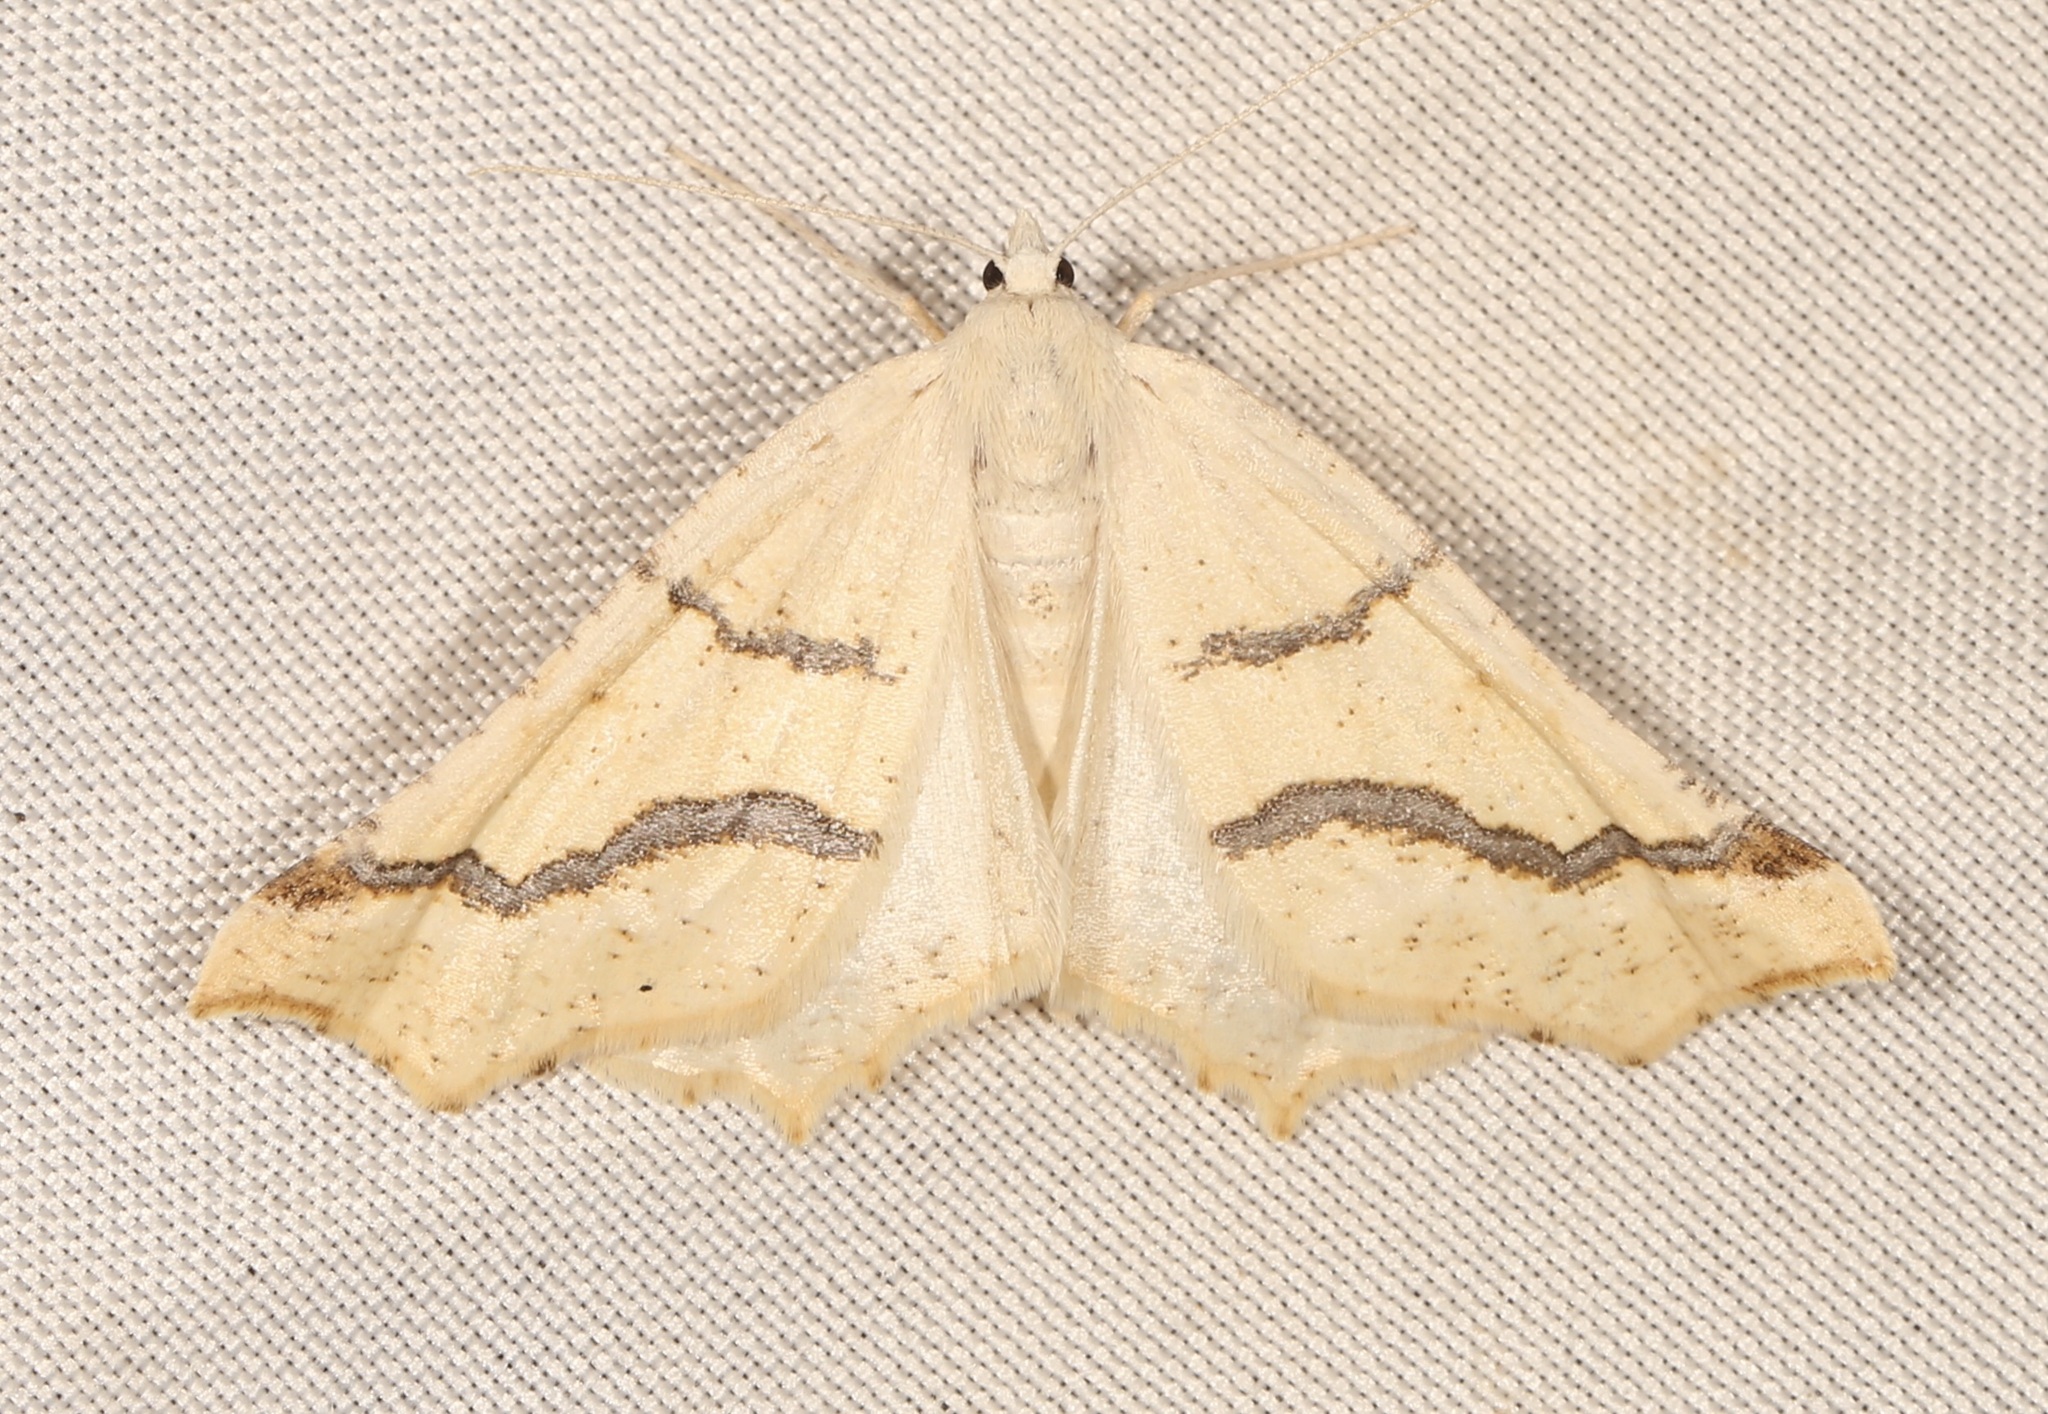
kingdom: Animalia
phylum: Arthropoda
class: Insecta
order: Lepidoptera
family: Geometridae
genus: Eriplatymetra
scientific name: Eriplatymetra coloradaria
